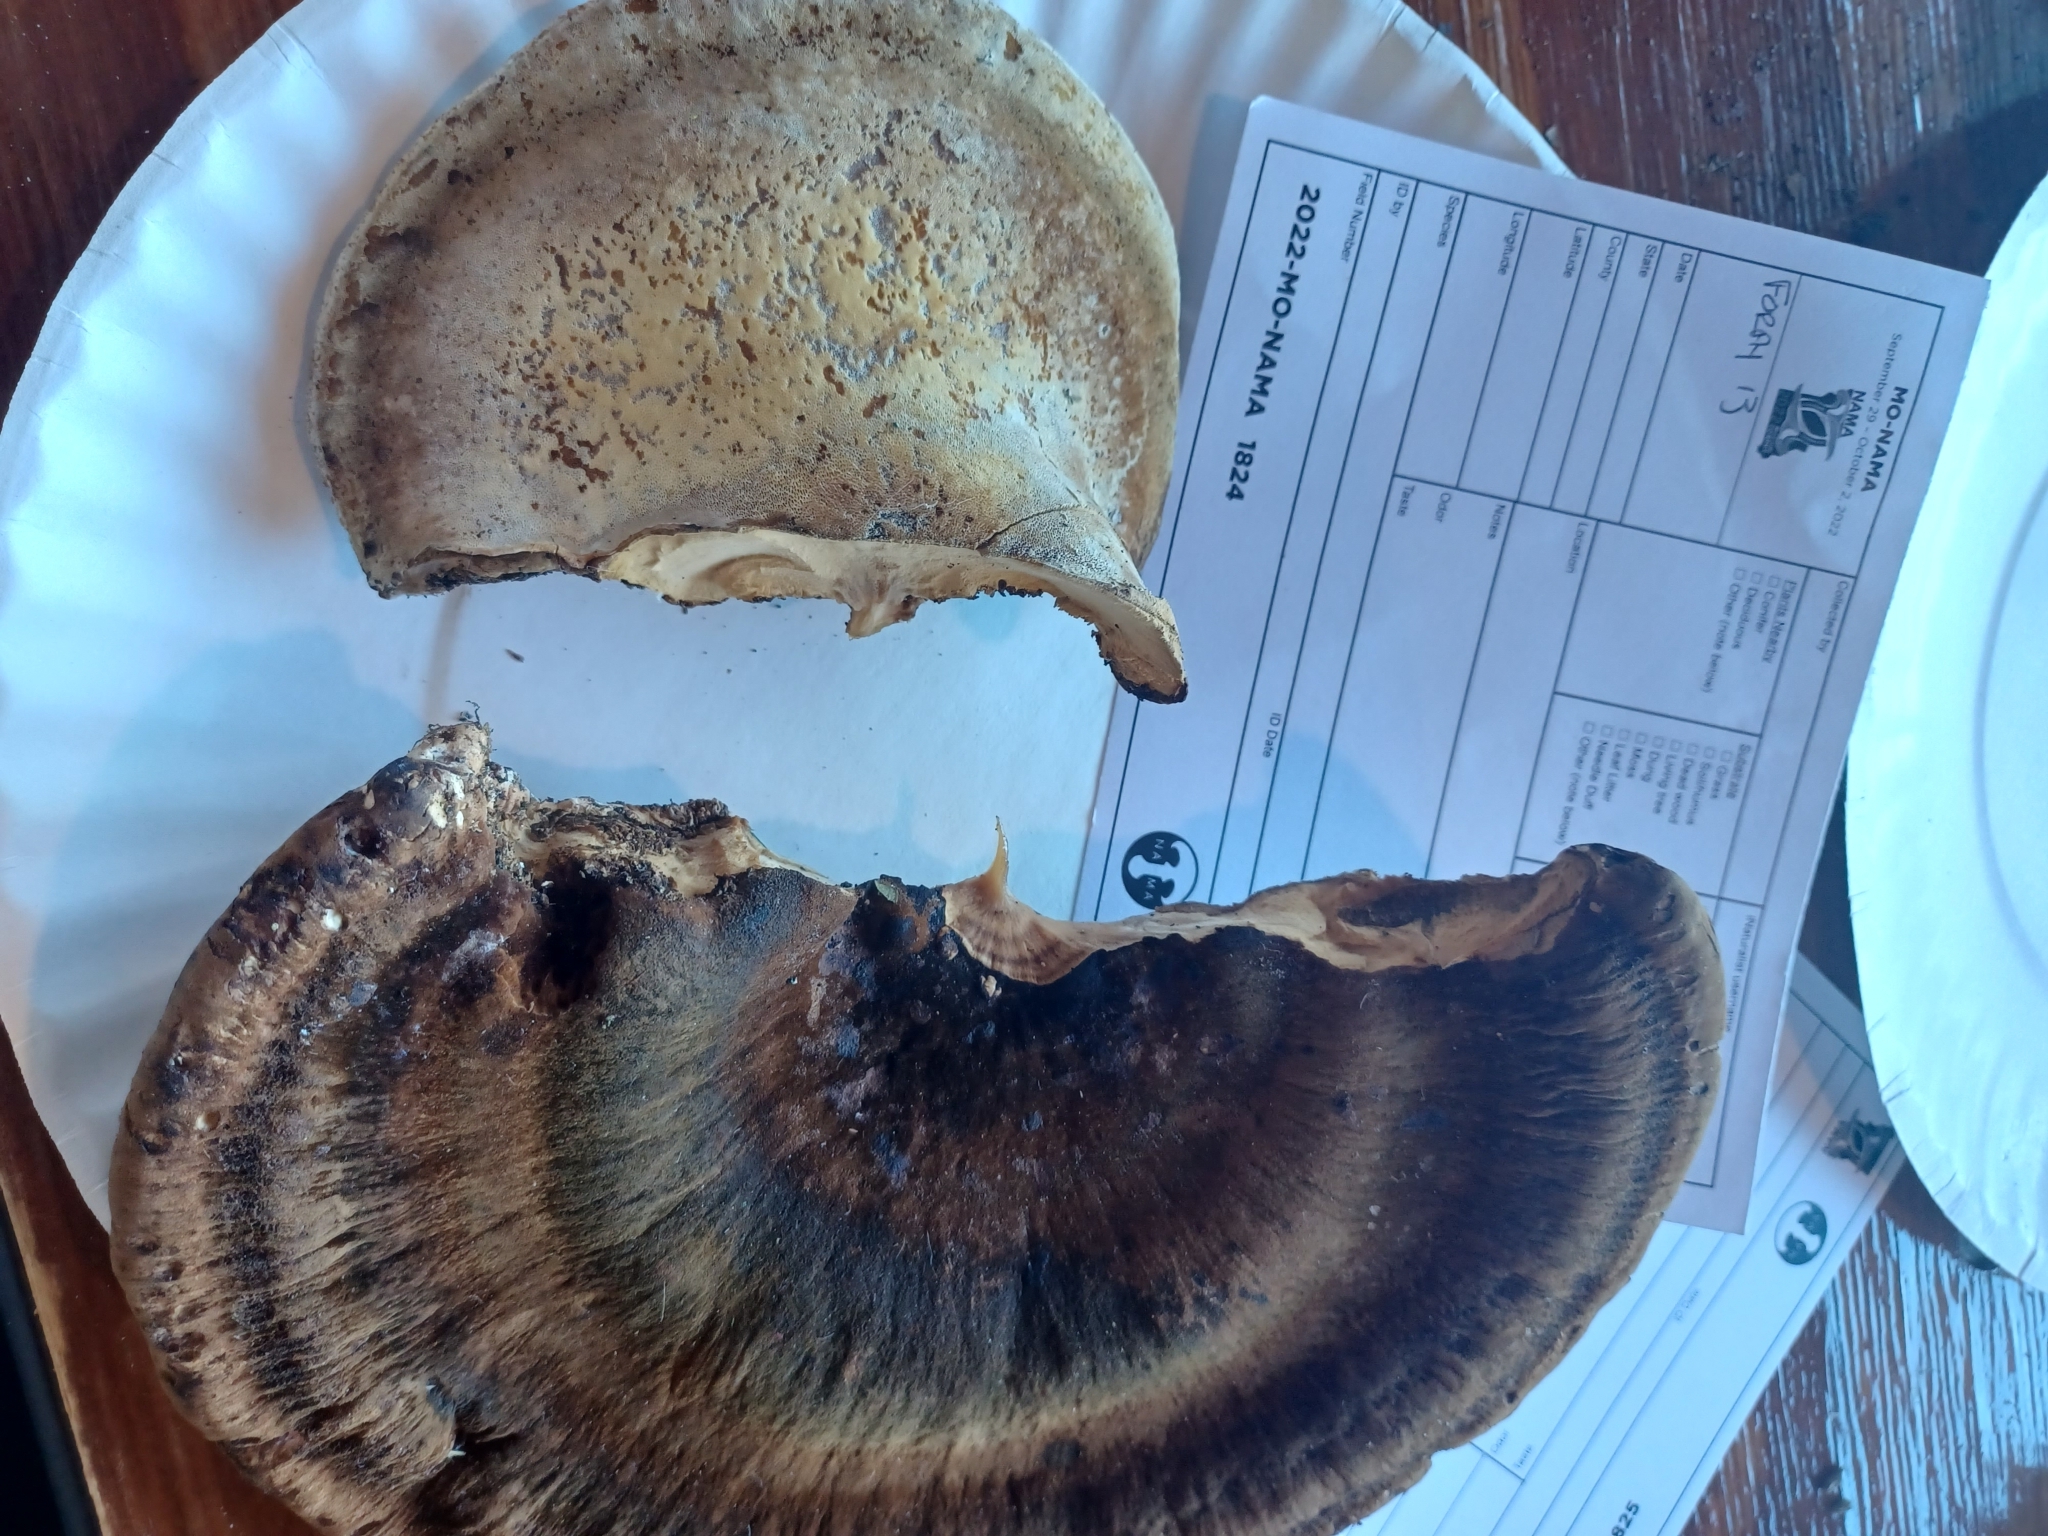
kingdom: Fungi
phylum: Basidiomycota
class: Agaricomycetes
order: Polyporales
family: Ischnodermataceae
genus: Ischnoderma
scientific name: Ischnoderma resinosum
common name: Resinous polypore
